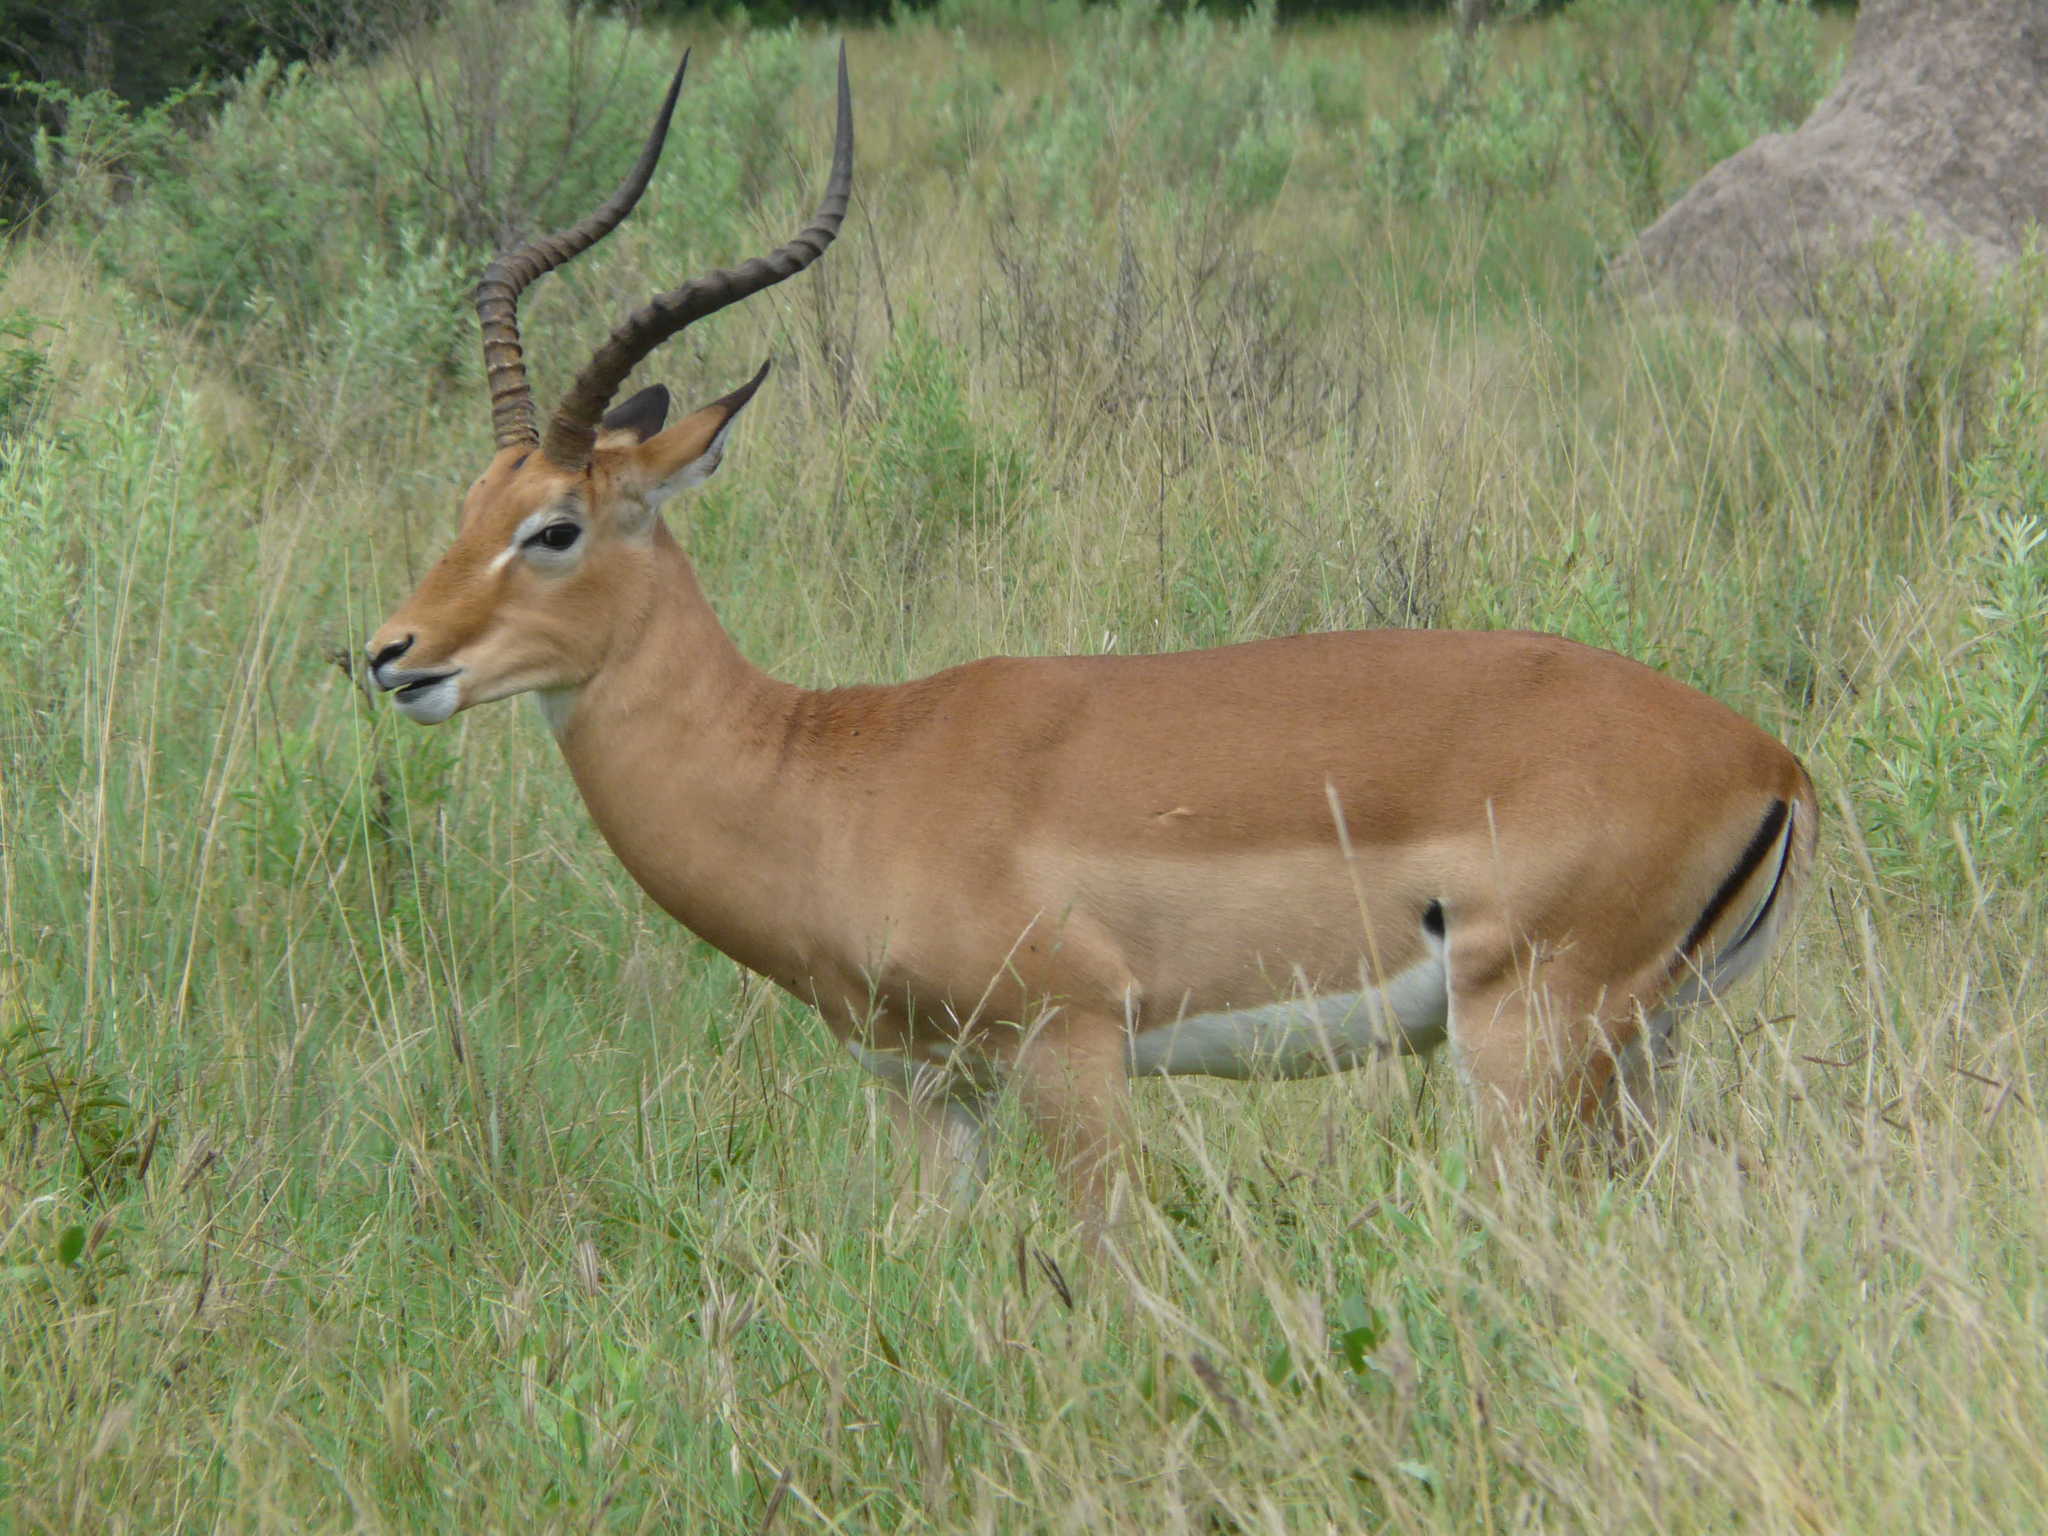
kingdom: Animalia
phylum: Chordata
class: Mammalia
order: Artiodactyla
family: Bovidae
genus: Aepyceros
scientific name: Aepyceros melampus
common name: Impala
